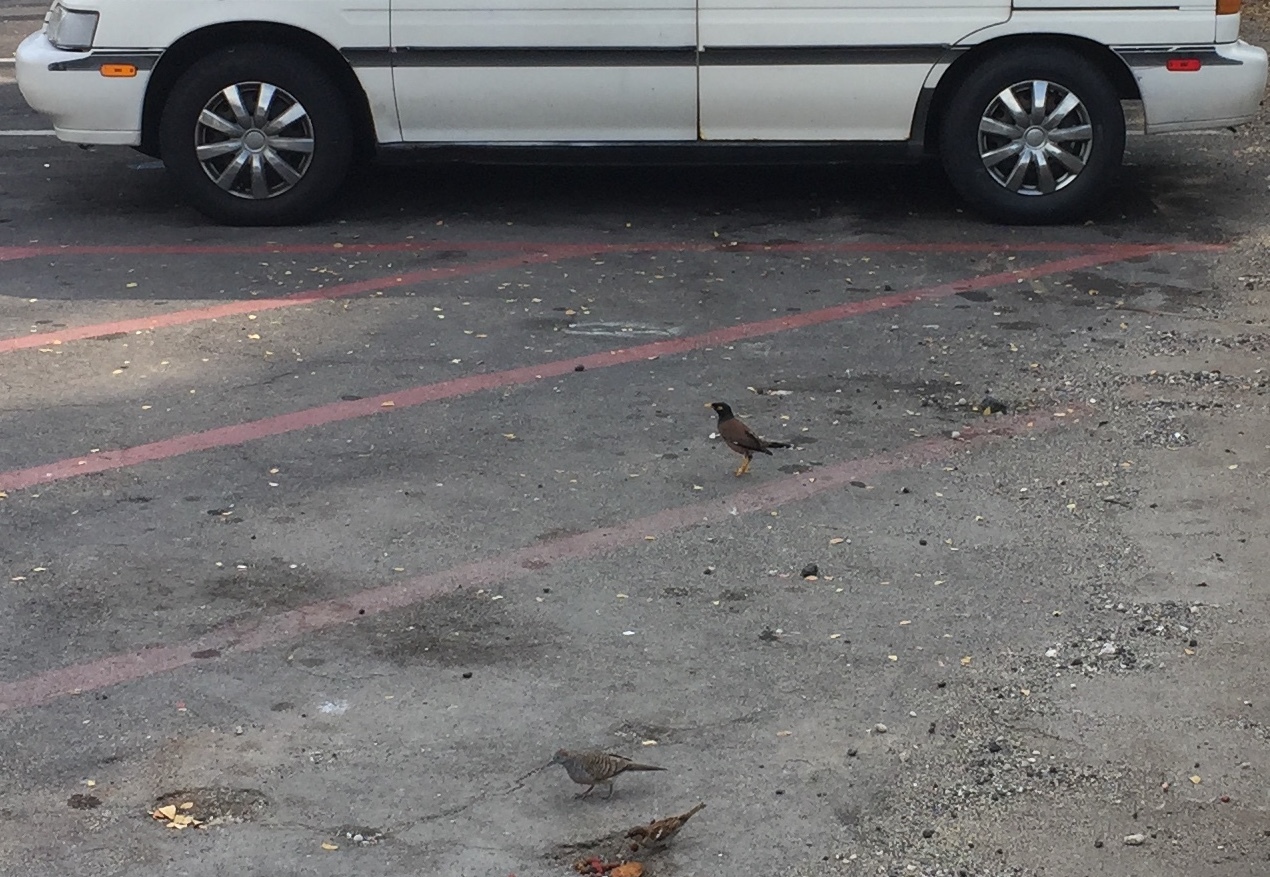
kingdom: Animalia
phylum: Chordata
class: Aves
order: Passeriformes
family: Sturnidae
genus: Acridotheres
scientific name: Acridotheres tristis
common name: Common myna
